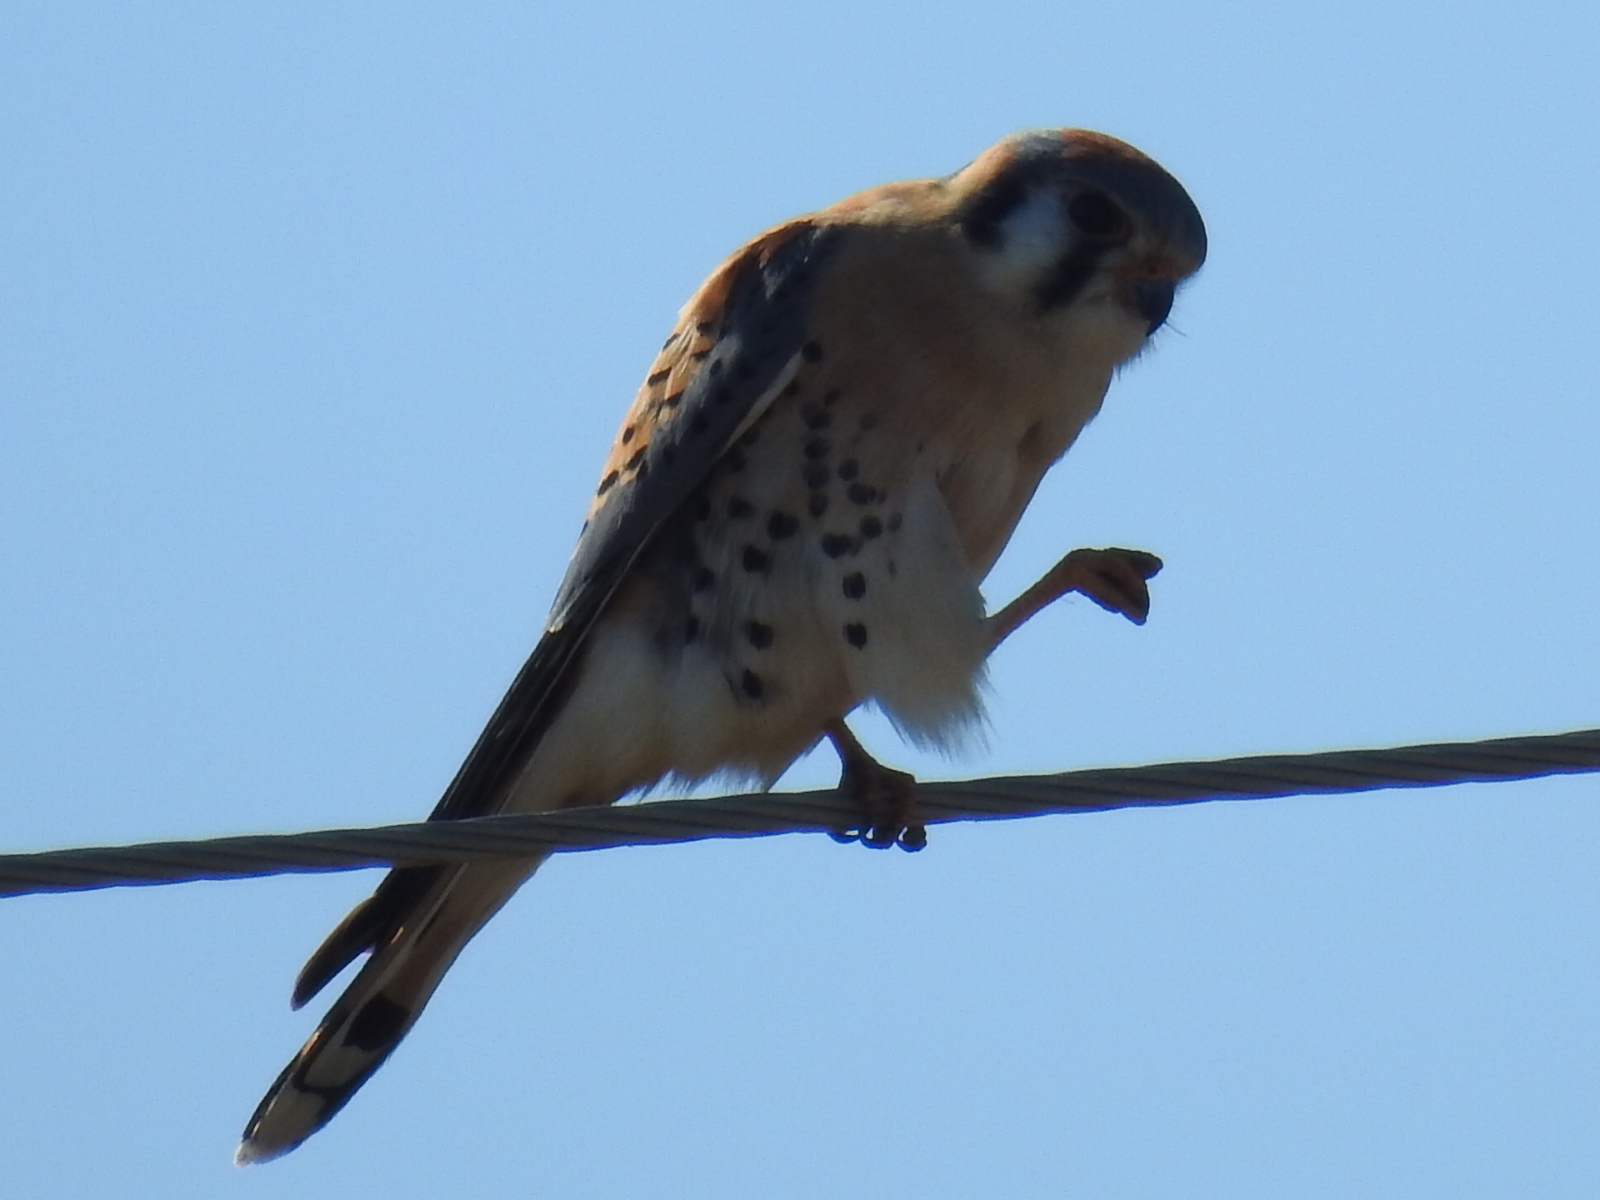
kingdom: Animalia
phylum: Chordata
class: Aves
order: Falconiformes
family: Falconidae
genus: Falco
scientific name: Falco sparverius
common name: American kestrel
